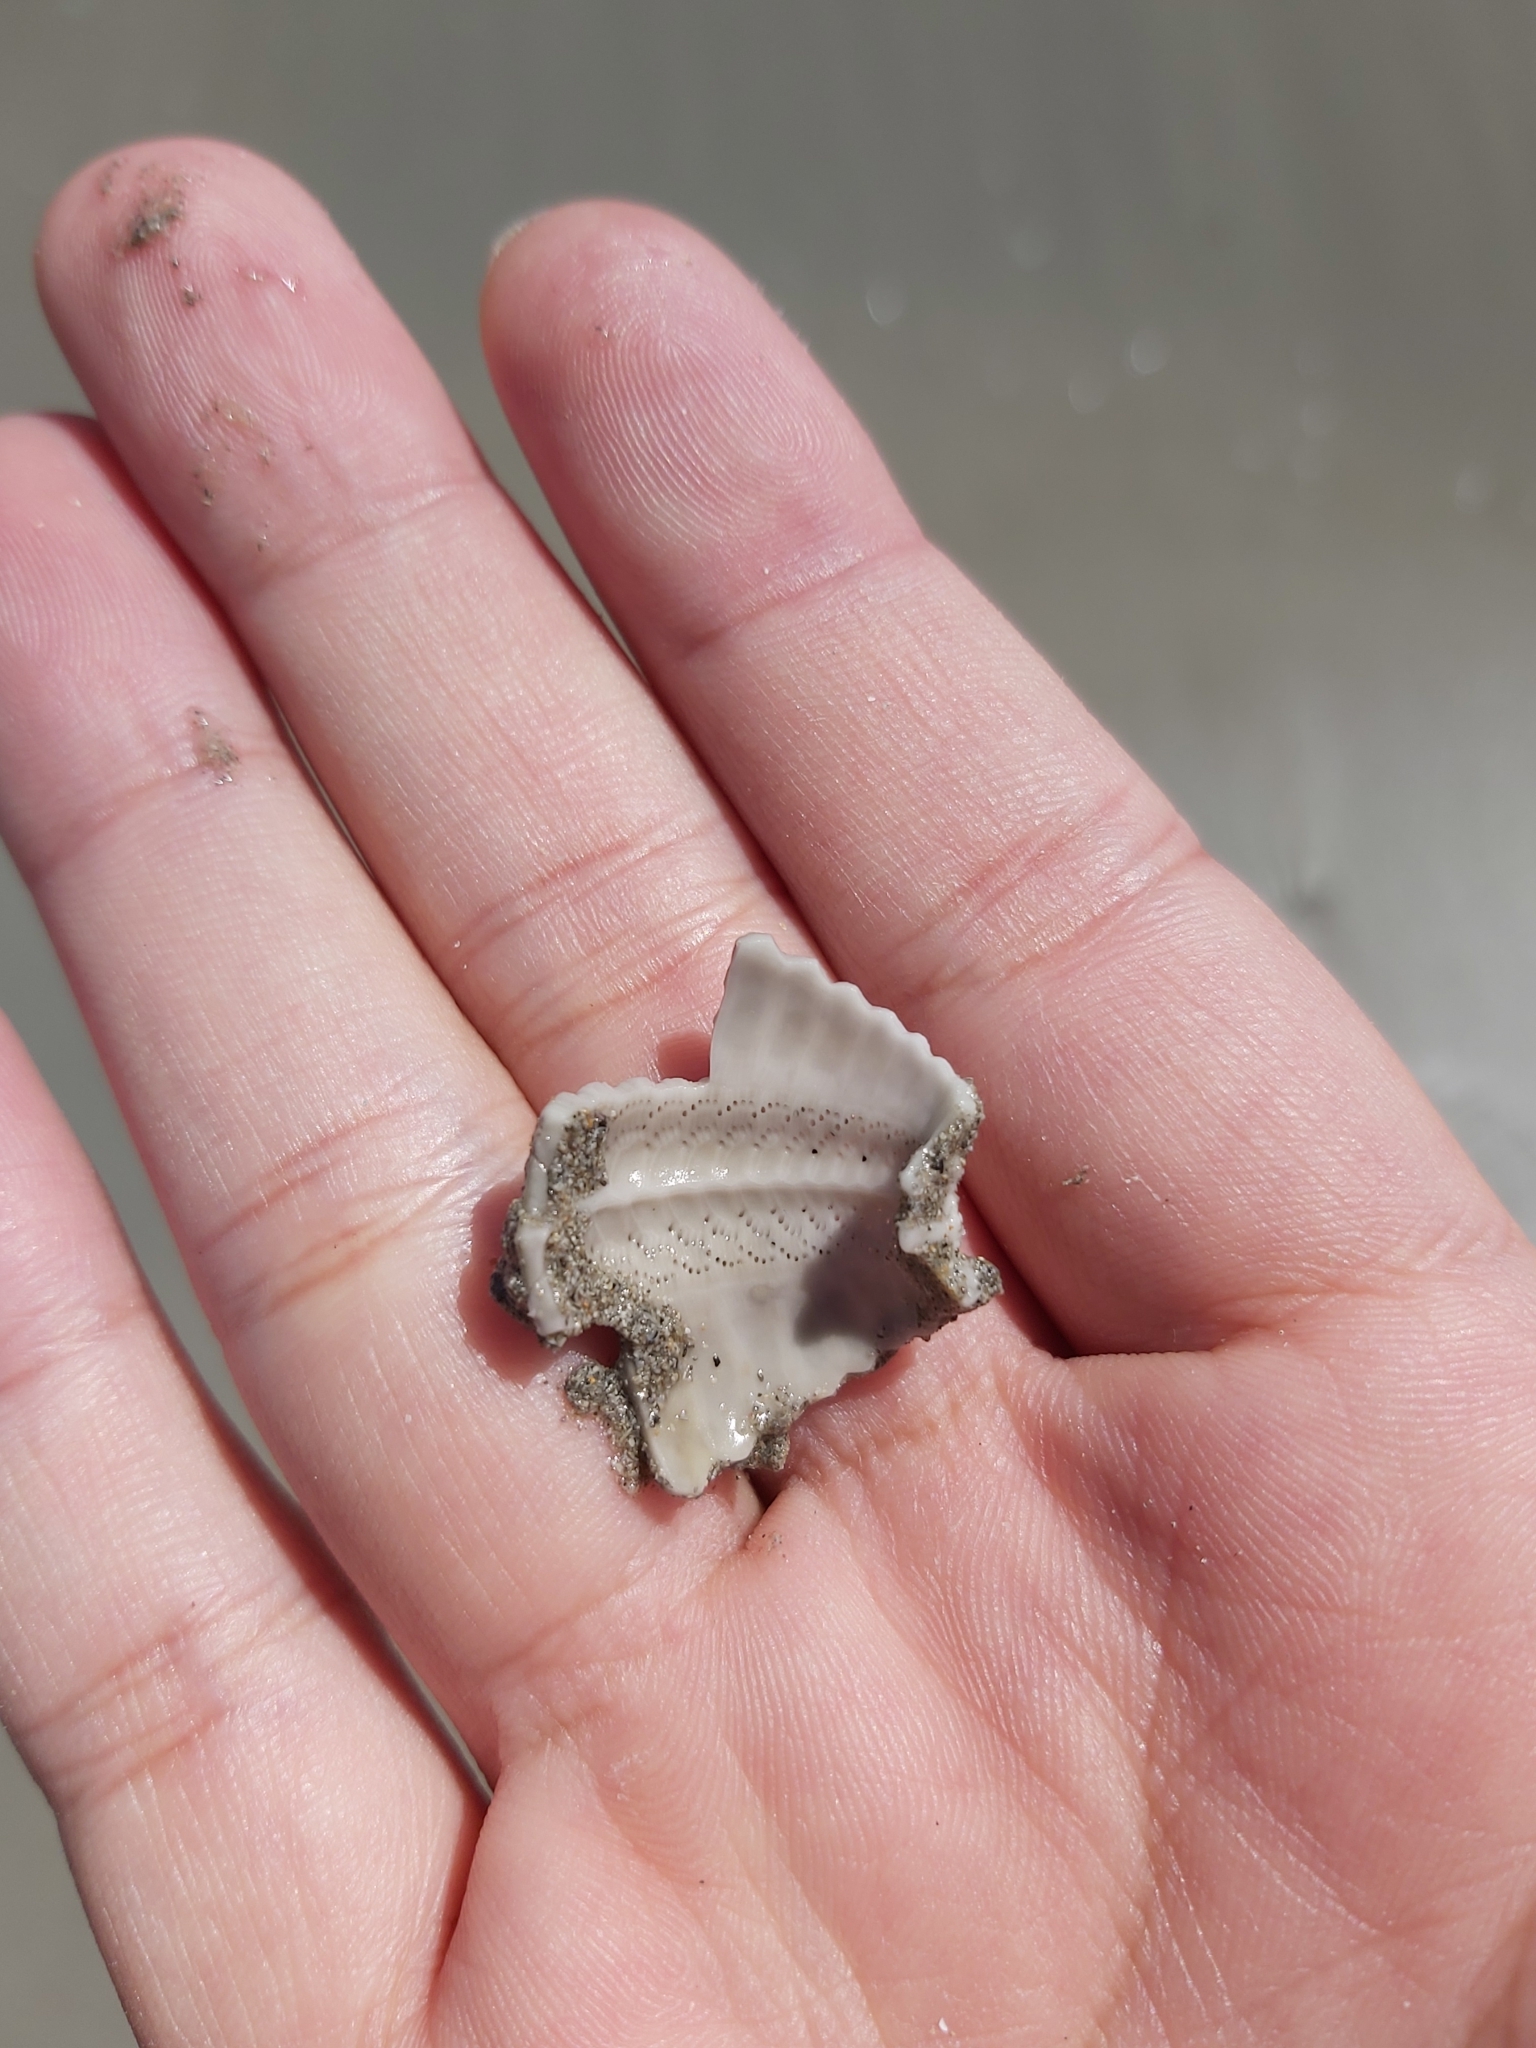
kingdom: Animalia
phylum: Echinodermata
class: Echinoidea
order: Camarodonta
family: Echinometridae
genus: Heliocidaris
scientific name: Heliocidaris erythrogramma
